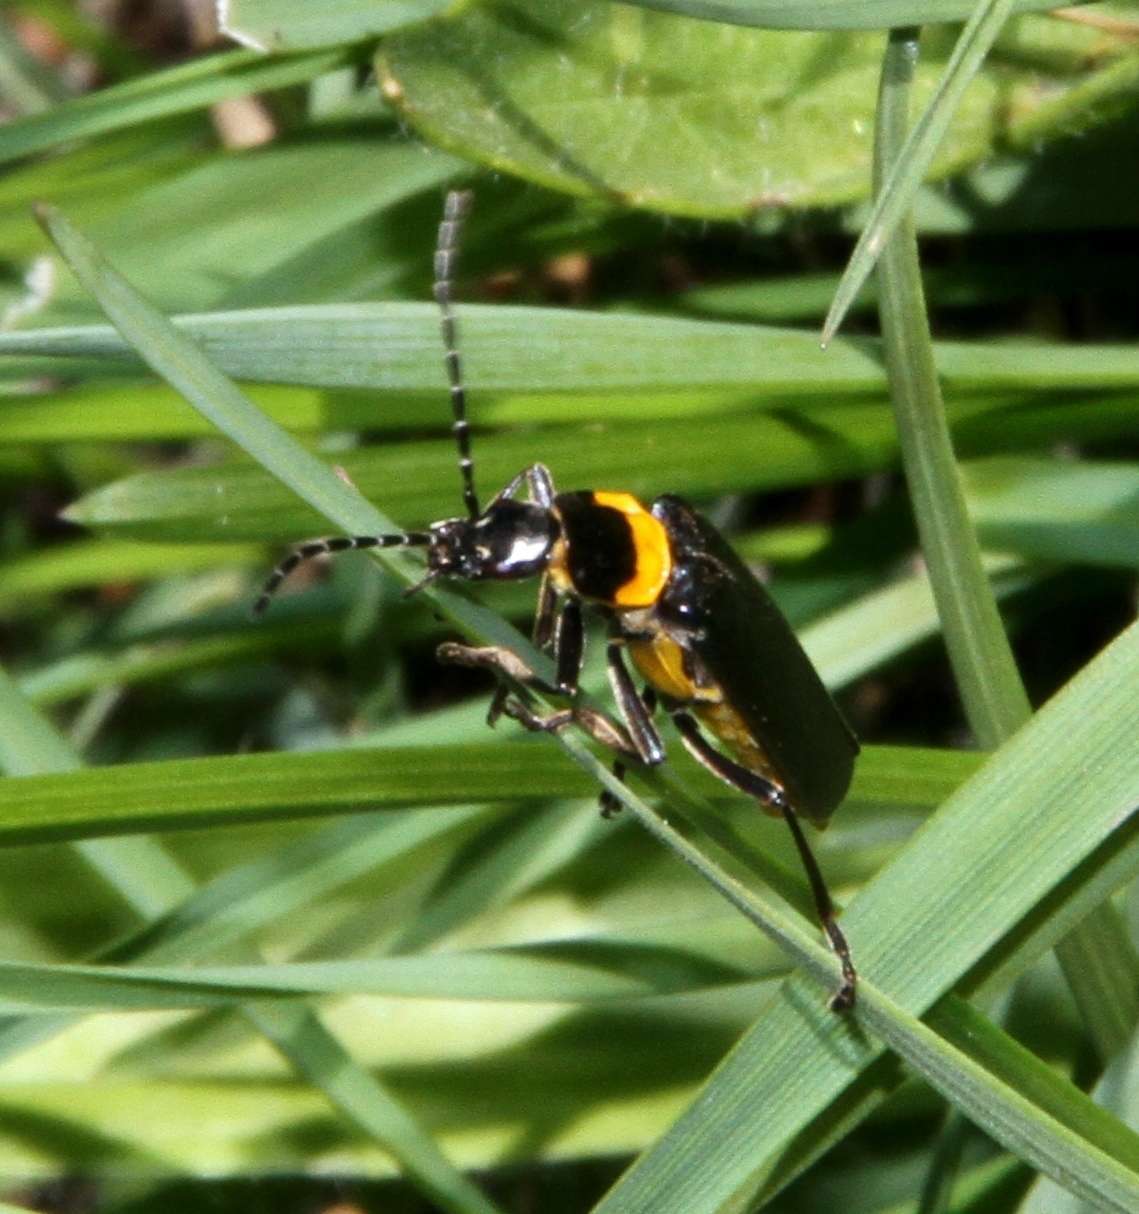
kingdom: Animalia
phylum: Arthropoda
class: Insecta
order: Coleoptera
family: Cantharidae
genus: Chauliognathus
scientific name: Chauliognathus
